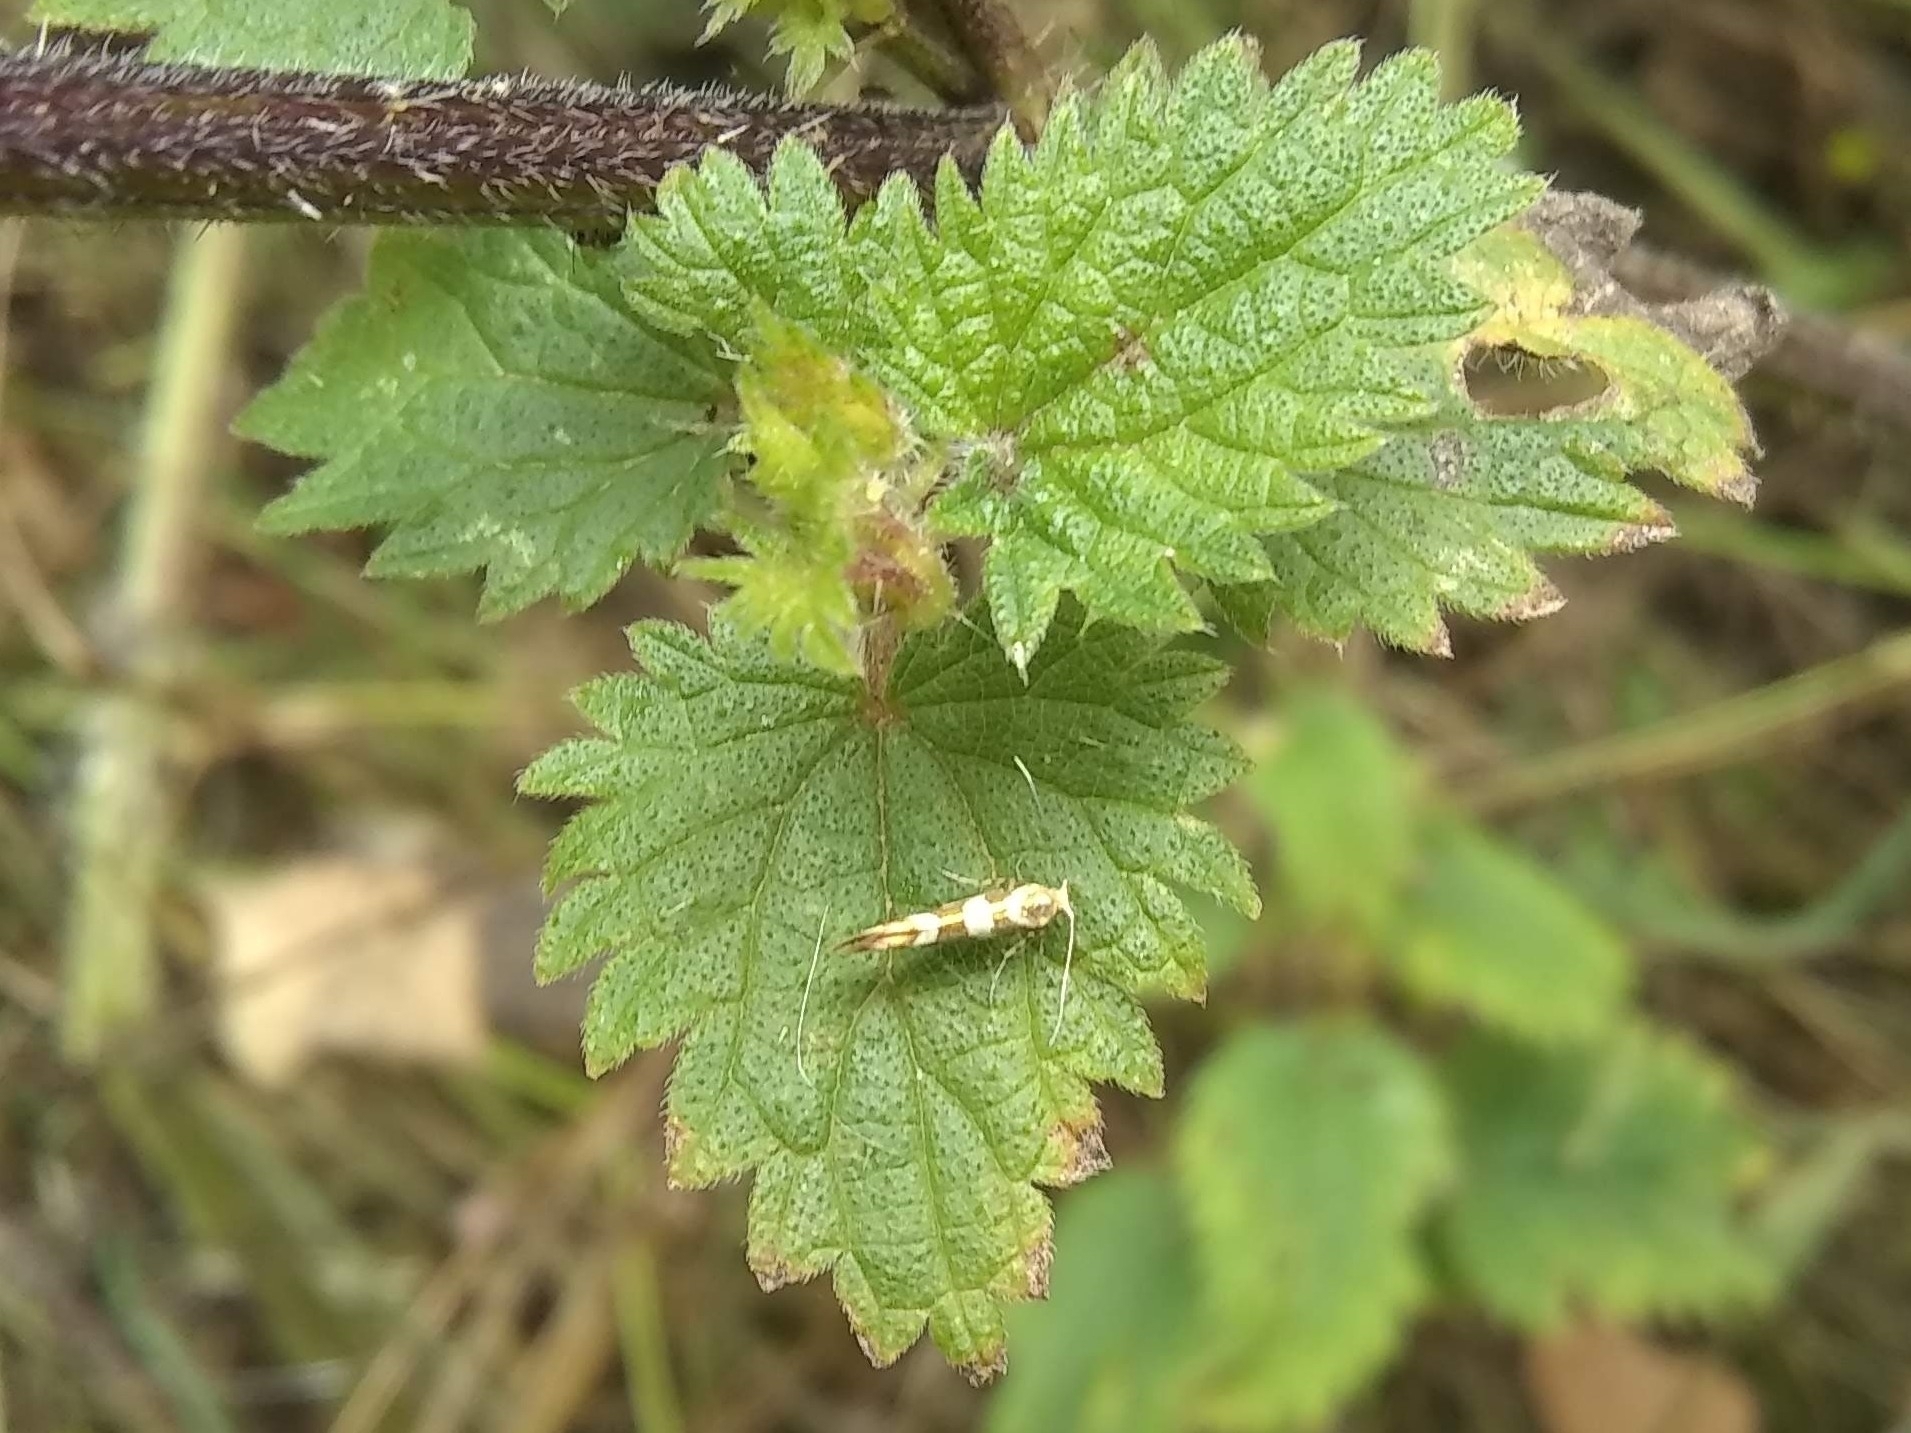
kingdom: Animalia
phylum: Arthropoda
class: Insecta
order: Lepidoptera
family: Argyresthiidae
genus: Argyresthia
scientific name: Argyresthia goedartella
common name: Golden argent
